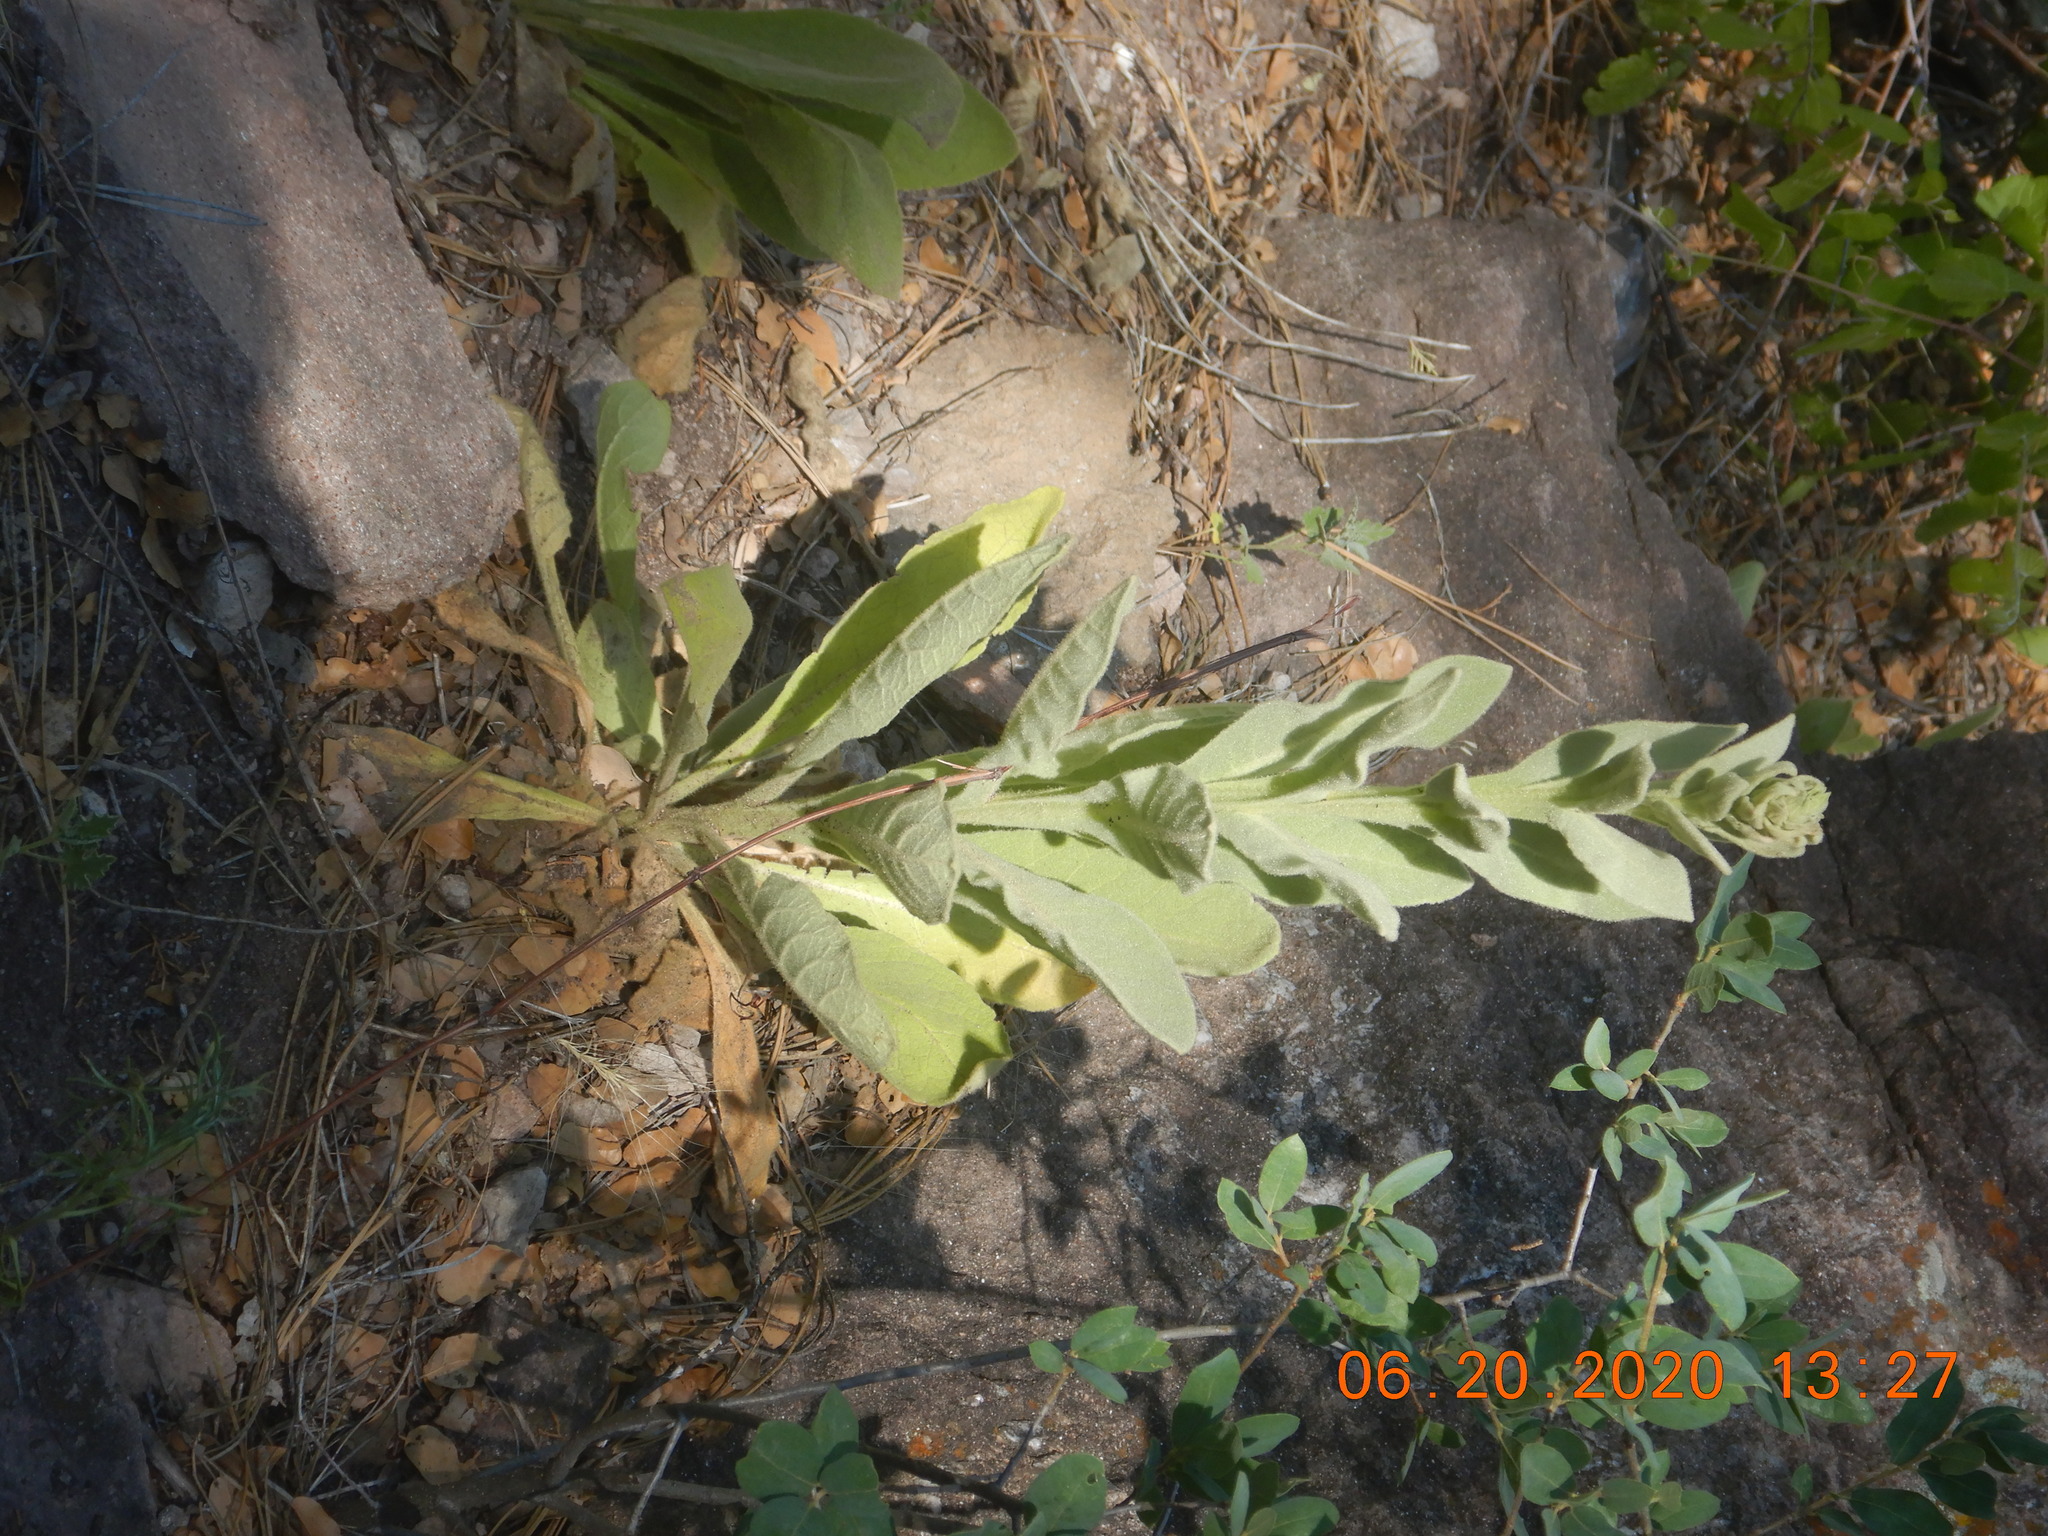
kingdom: Plantae
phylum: Tracheophyta
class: Magnoliopsida
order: Lamiales
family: Scrophulariaceae
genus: Verbascum
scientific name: Verbascum thapsus
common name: Common mullein
